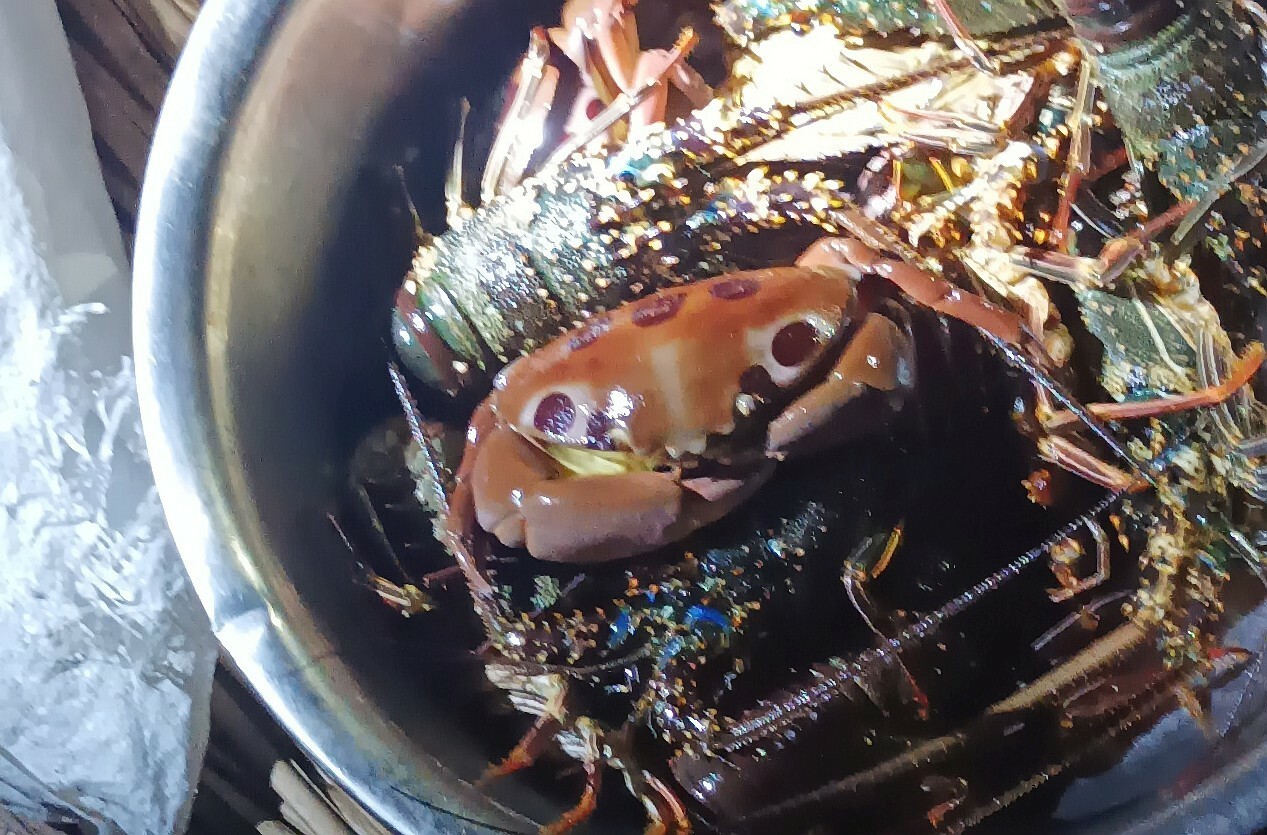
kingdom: Animalia
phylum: Arthropoda
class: Malacostraca
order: Decapoda
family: Carpiliidae
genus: Carpilius
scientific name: Carpilius maculatus
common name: Spotted reef crab
